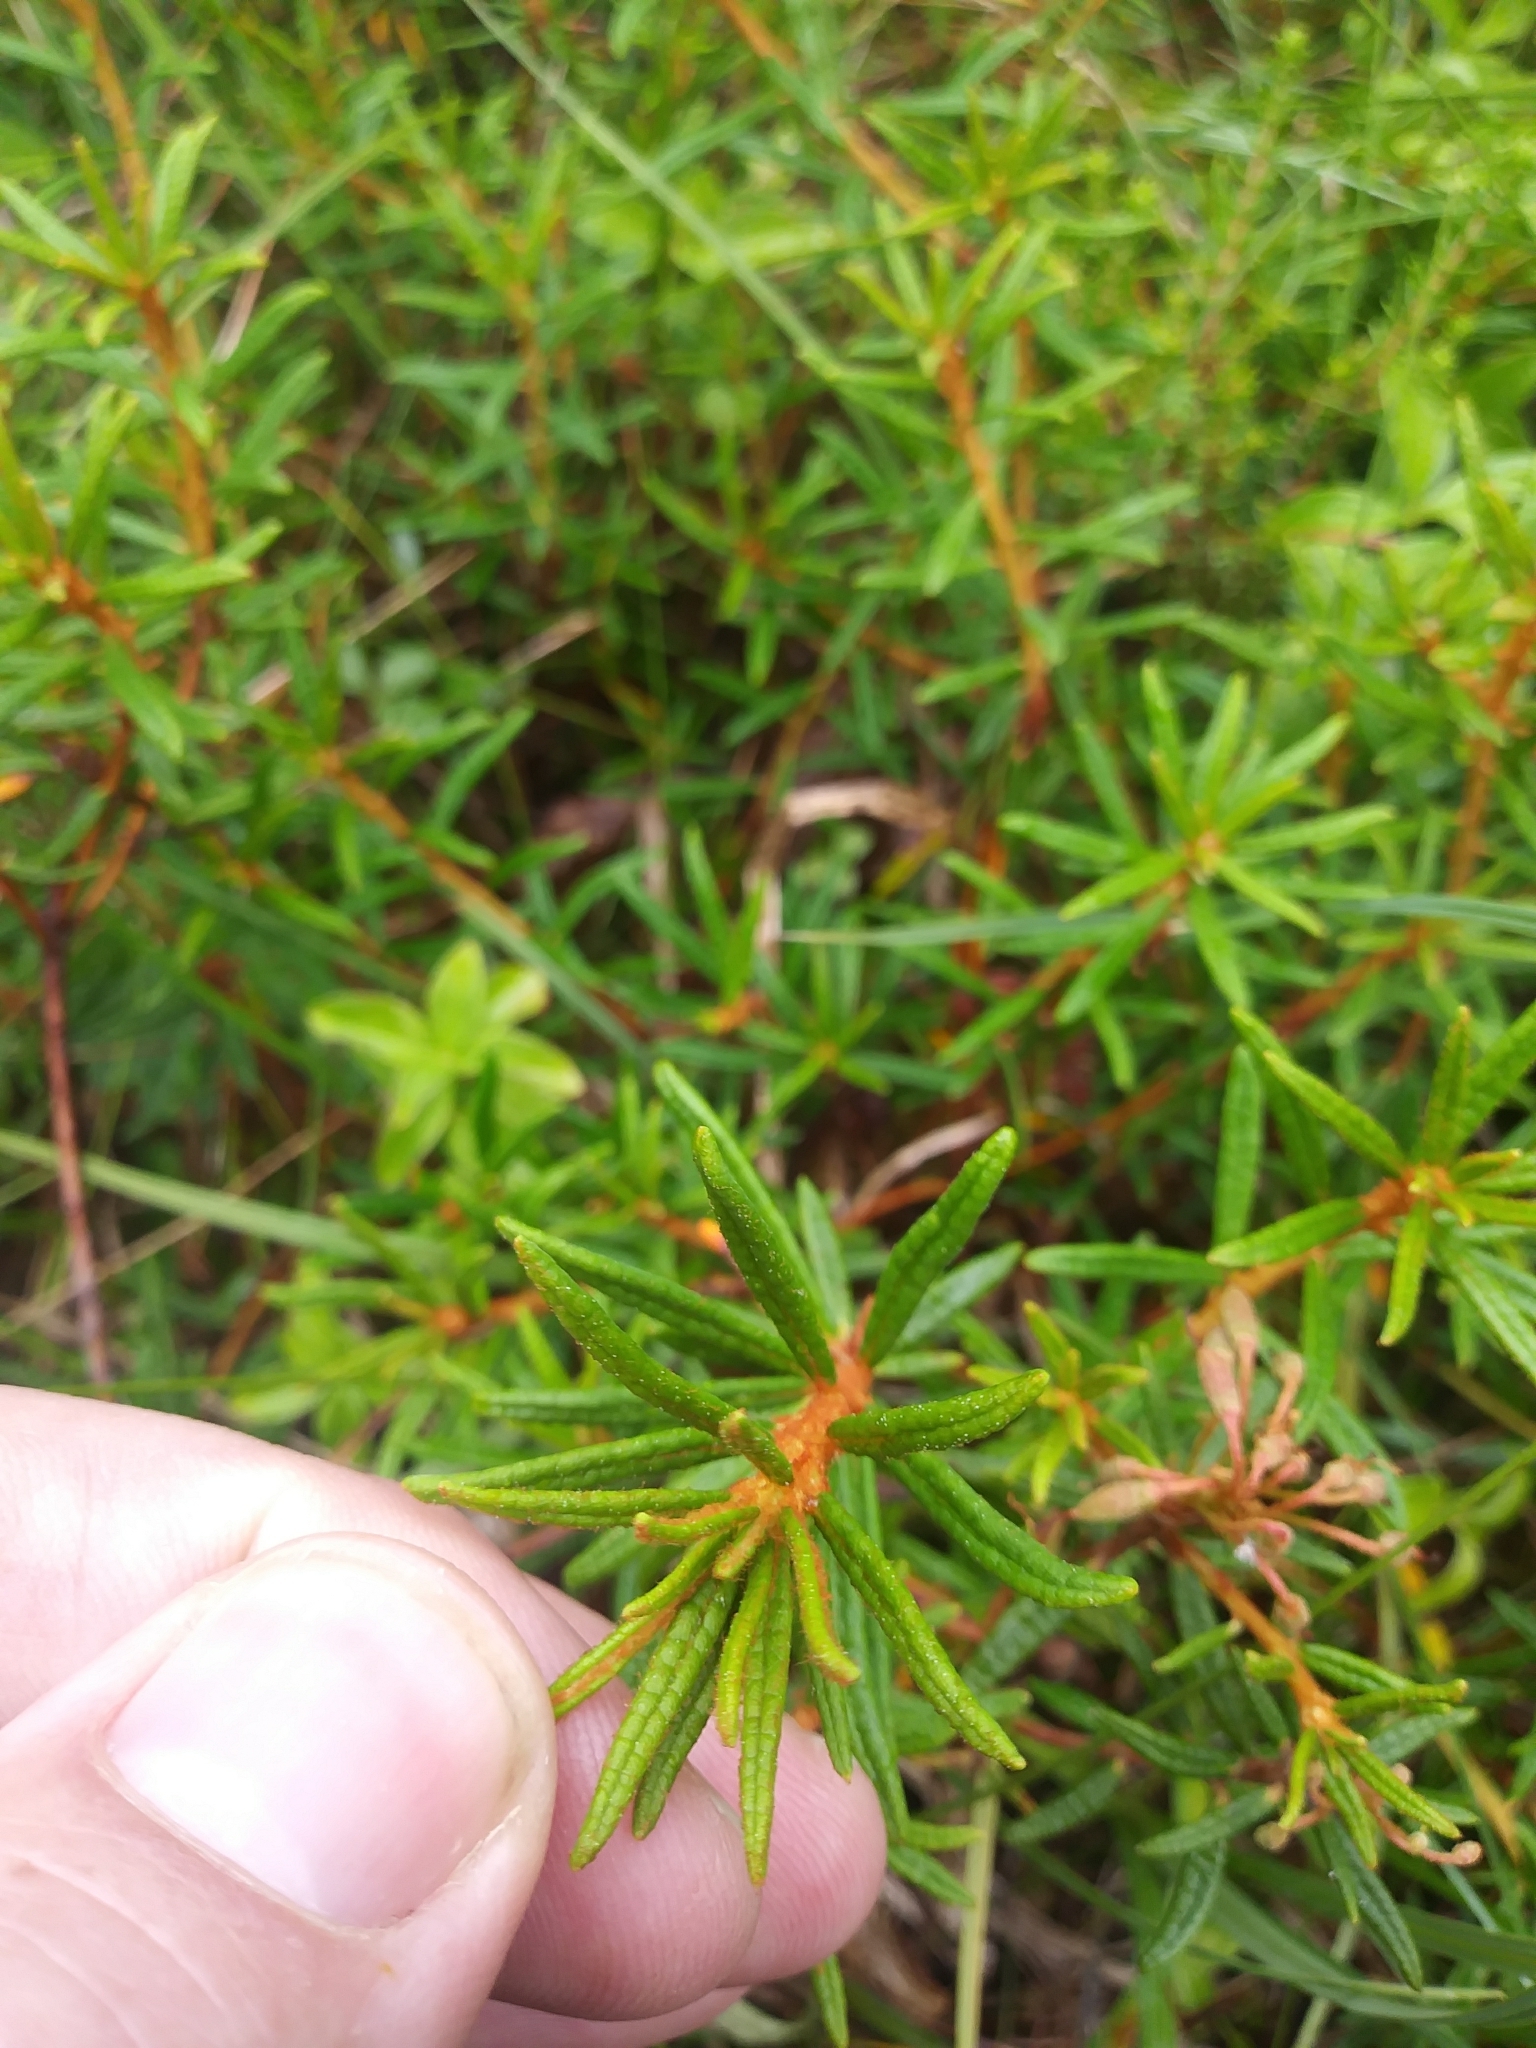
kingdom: Plantae
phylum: Tracheophyta
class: Magnoliopsida
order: Ericales
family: Ericaceae
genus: Rhododendron
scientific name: Rhododendron tomentosum
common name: Marsh labrador tea
